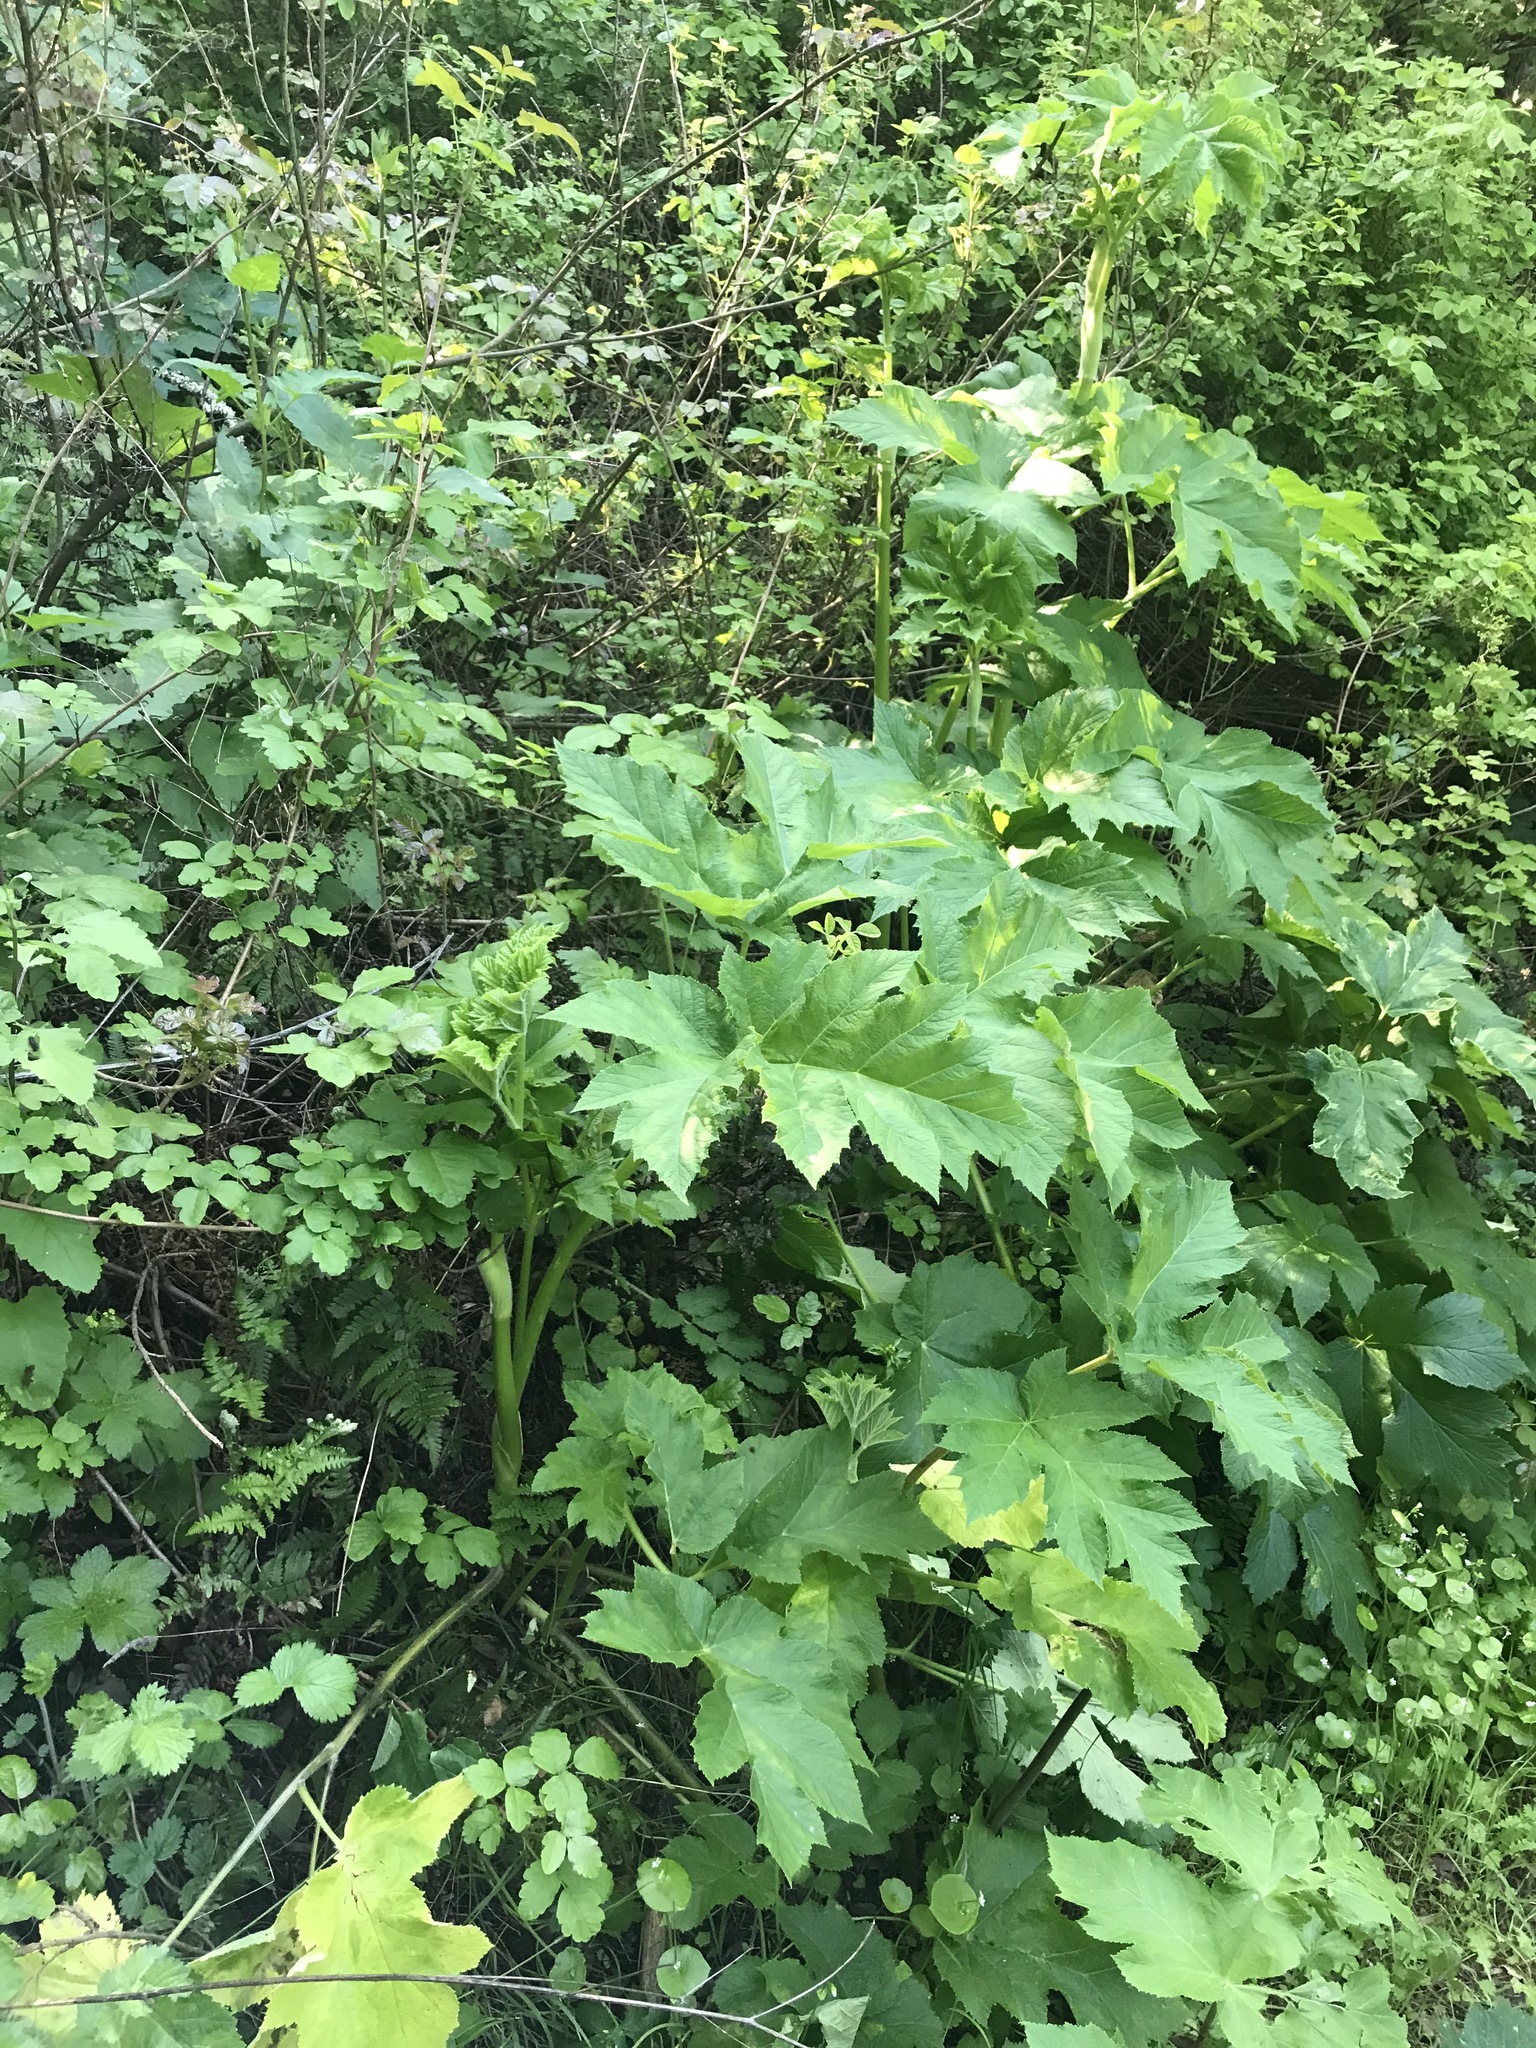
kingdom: Plantae
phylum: Tracheophyta
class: Magnoliopsida
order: Apiales
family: Apiaceae
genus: Heracleum
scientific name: Heracleum maximum
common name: American cow parsnip
